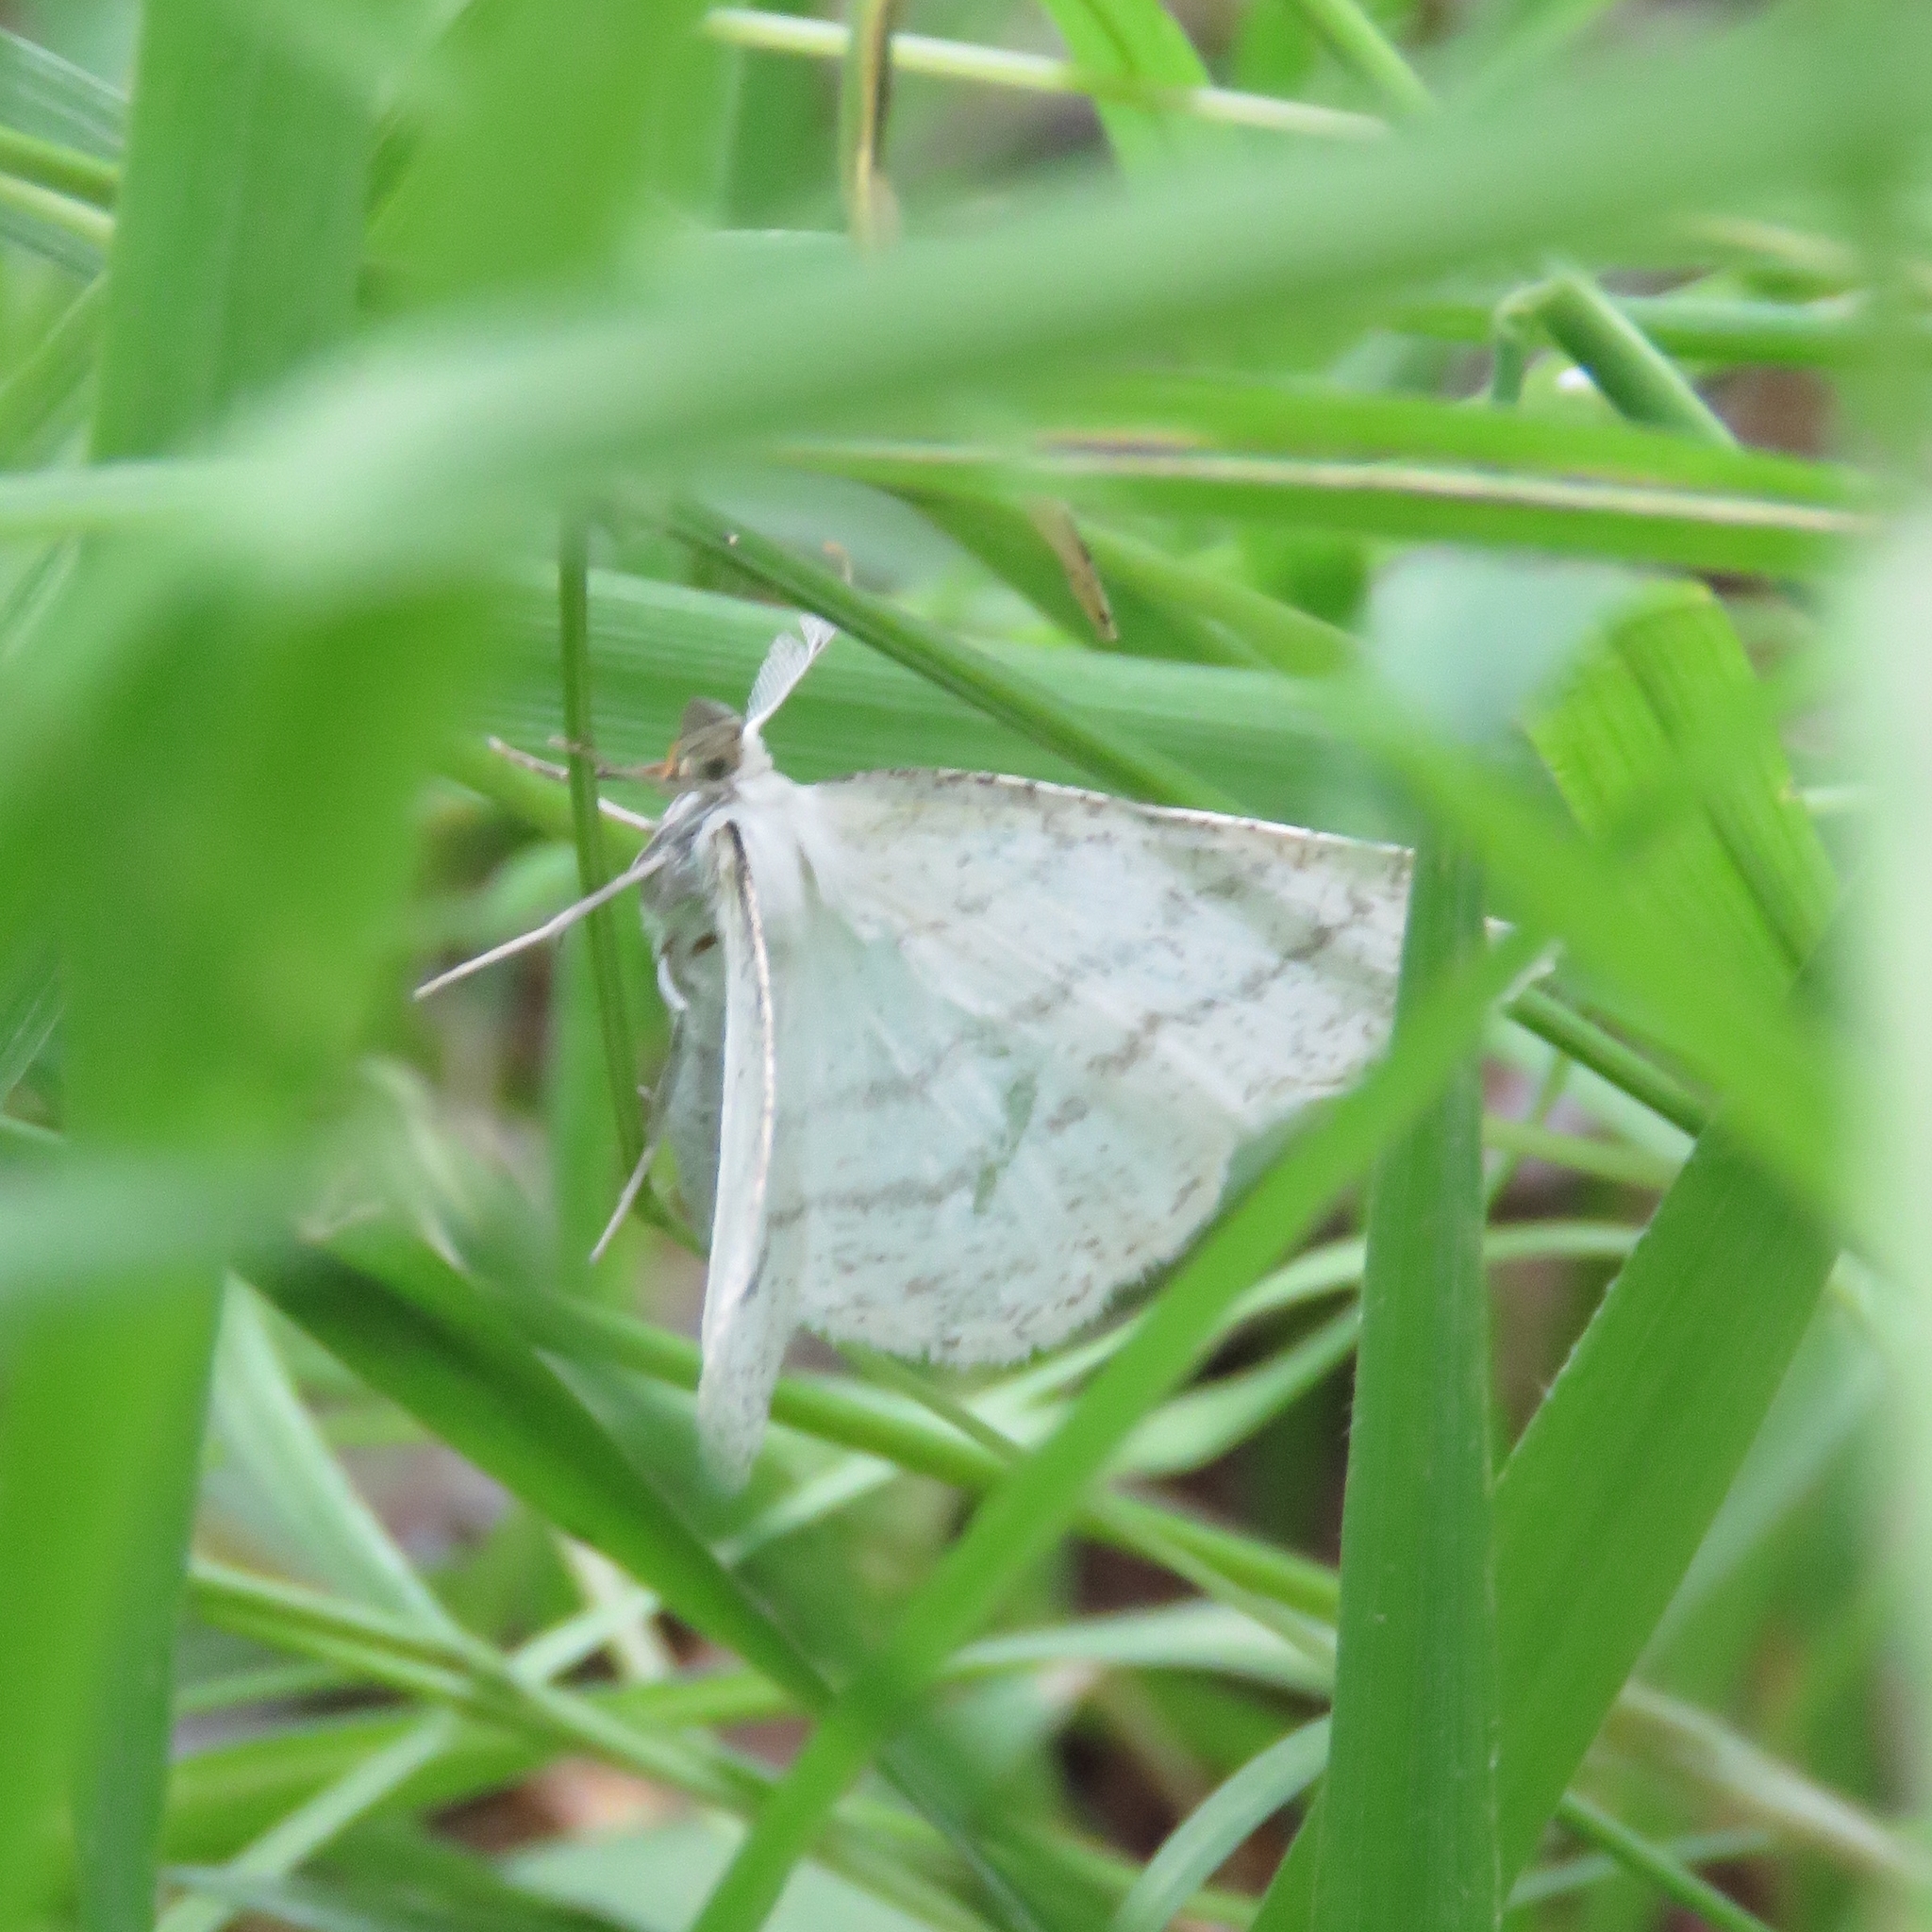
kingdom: Animalia
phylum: Arthropoda
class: Insecta
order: Lepidoptera
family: Geometridae
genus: Cabera
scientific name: Cabera pusaria
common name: Common white wave
